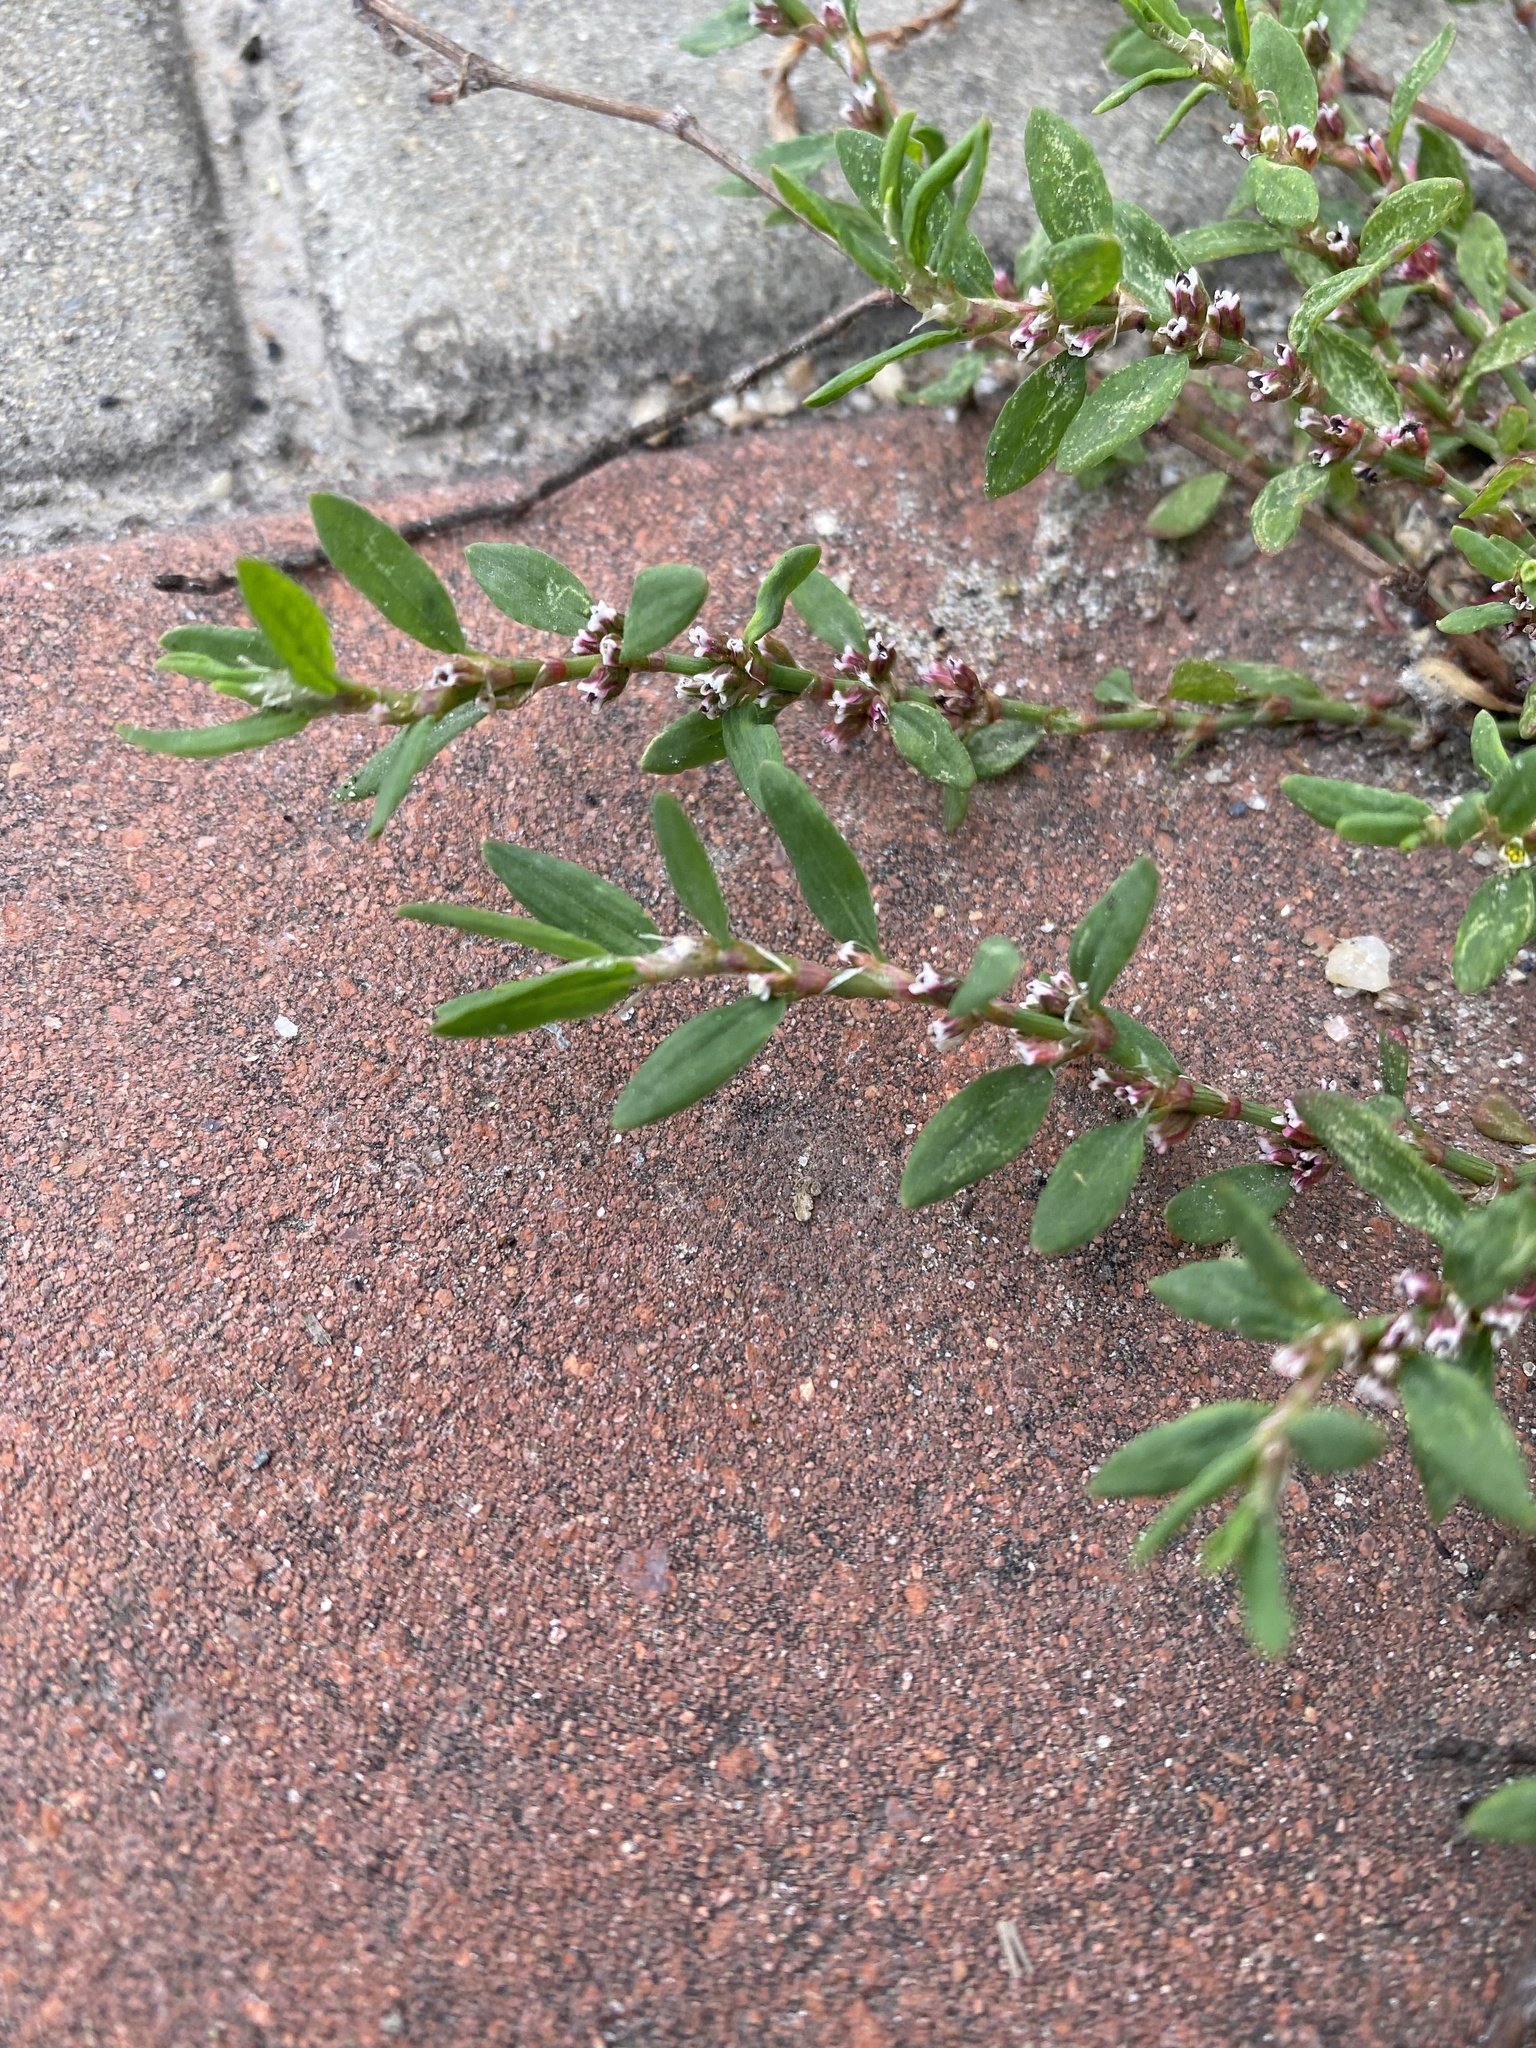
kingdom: Plantae
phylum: Tracheophyta
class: Magnoliopsida
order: Caryophyllales
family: Polygonaceae
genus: Polygonum
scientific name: Polygonum arenastrum
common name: Equal-leaved knotgrass
